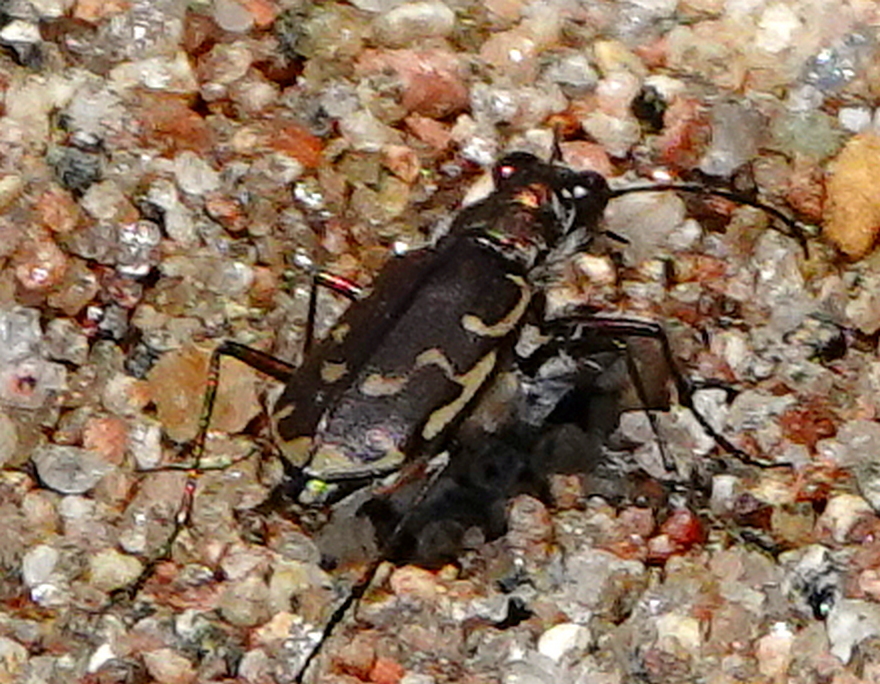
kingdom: Animalia
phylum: Arthropoda
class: Insecta
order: Coleoptera
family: Carabidae
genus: Cicindela
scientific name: Cicindela repanda
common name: Bronzed tiger beetle
